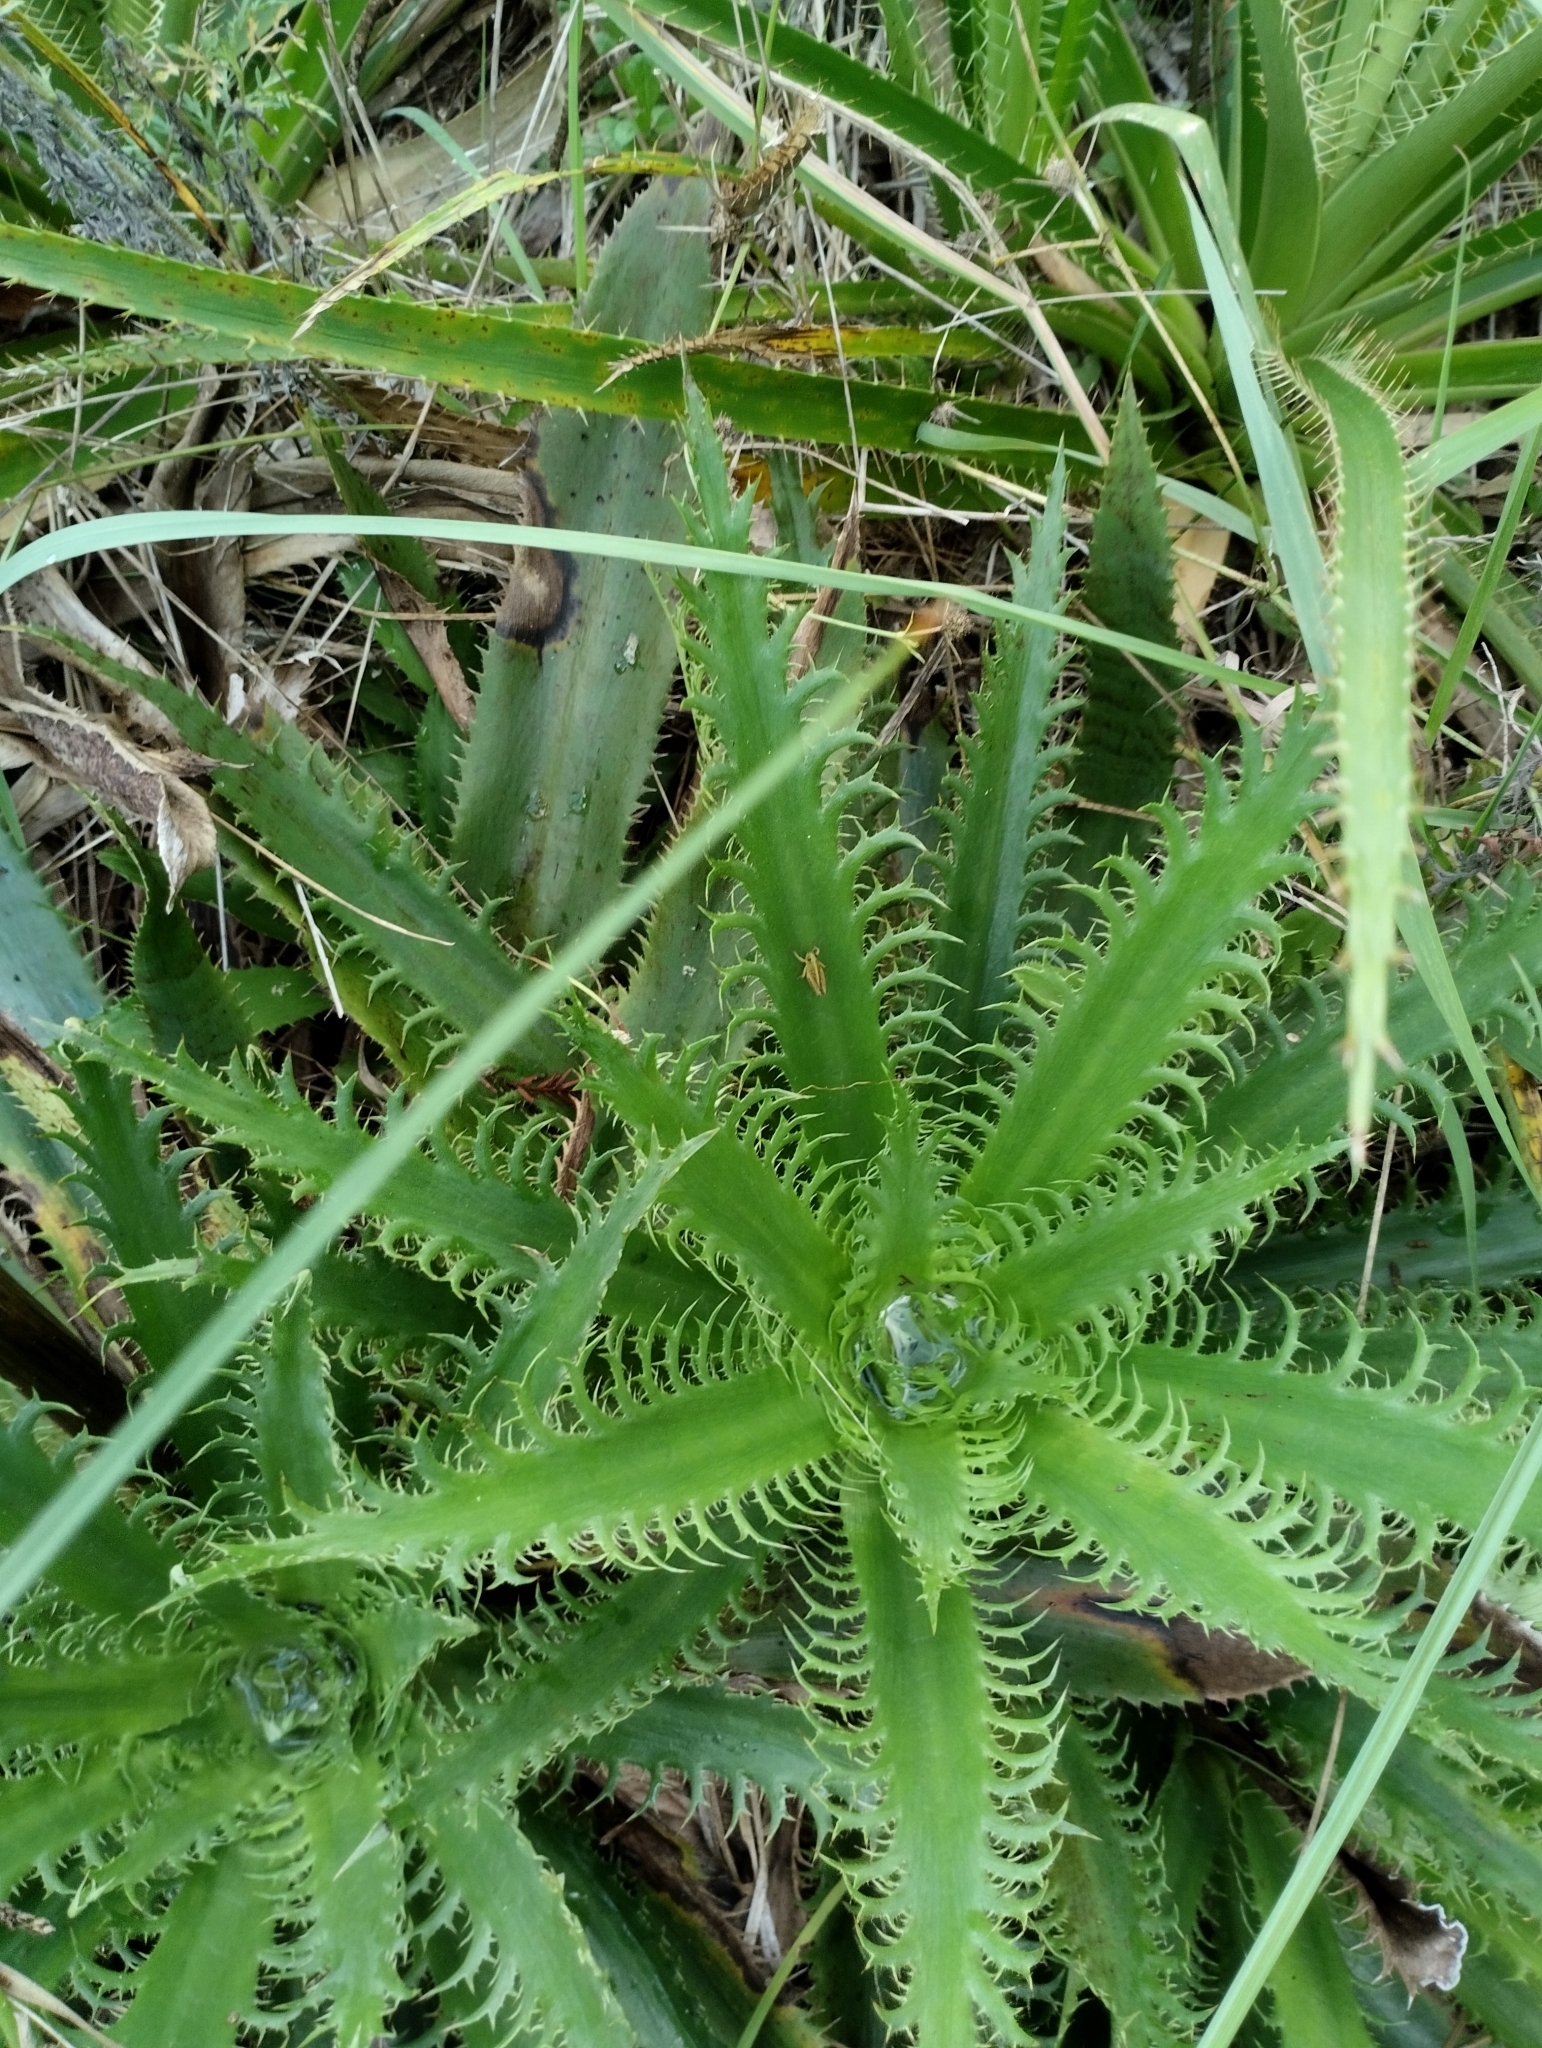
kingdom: Plantae
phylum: Tracheophyta
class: Magnoliopsida
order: Apiales
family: Apiaceae
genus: Eryngium
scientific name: Eryngium serra
